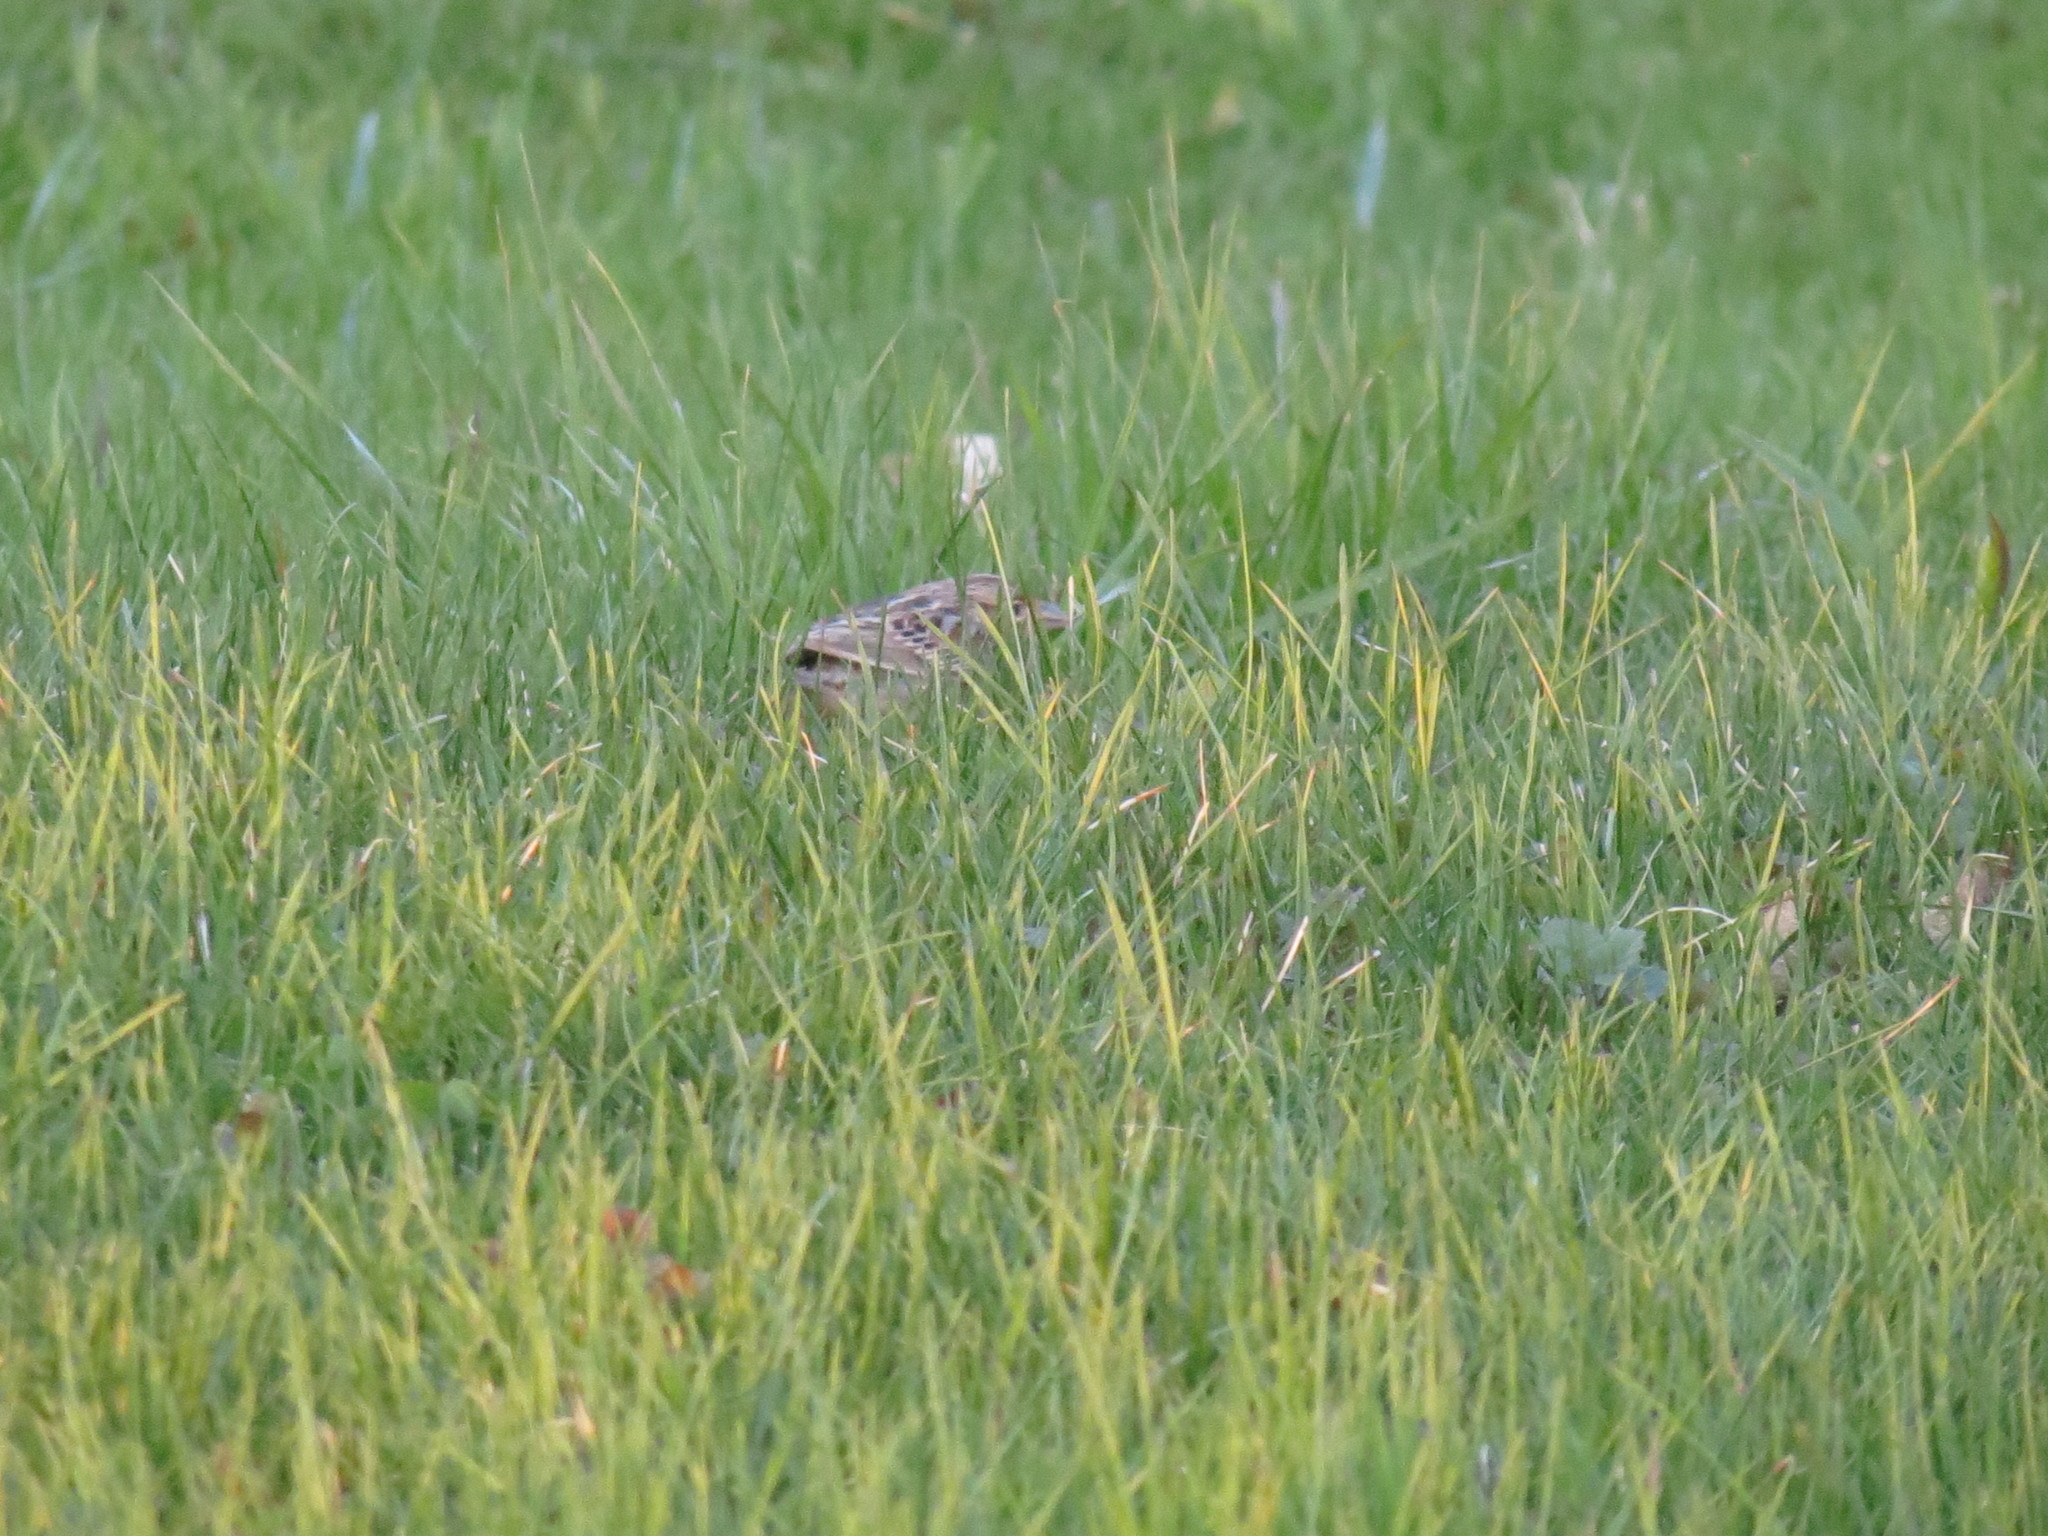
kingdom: Animalia
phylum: Chordata
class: Aves
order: Passeriformes
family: Passerellidae
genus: Ammodramus
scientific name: Ammodramus savannarum
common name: Grasshopper sparrow
